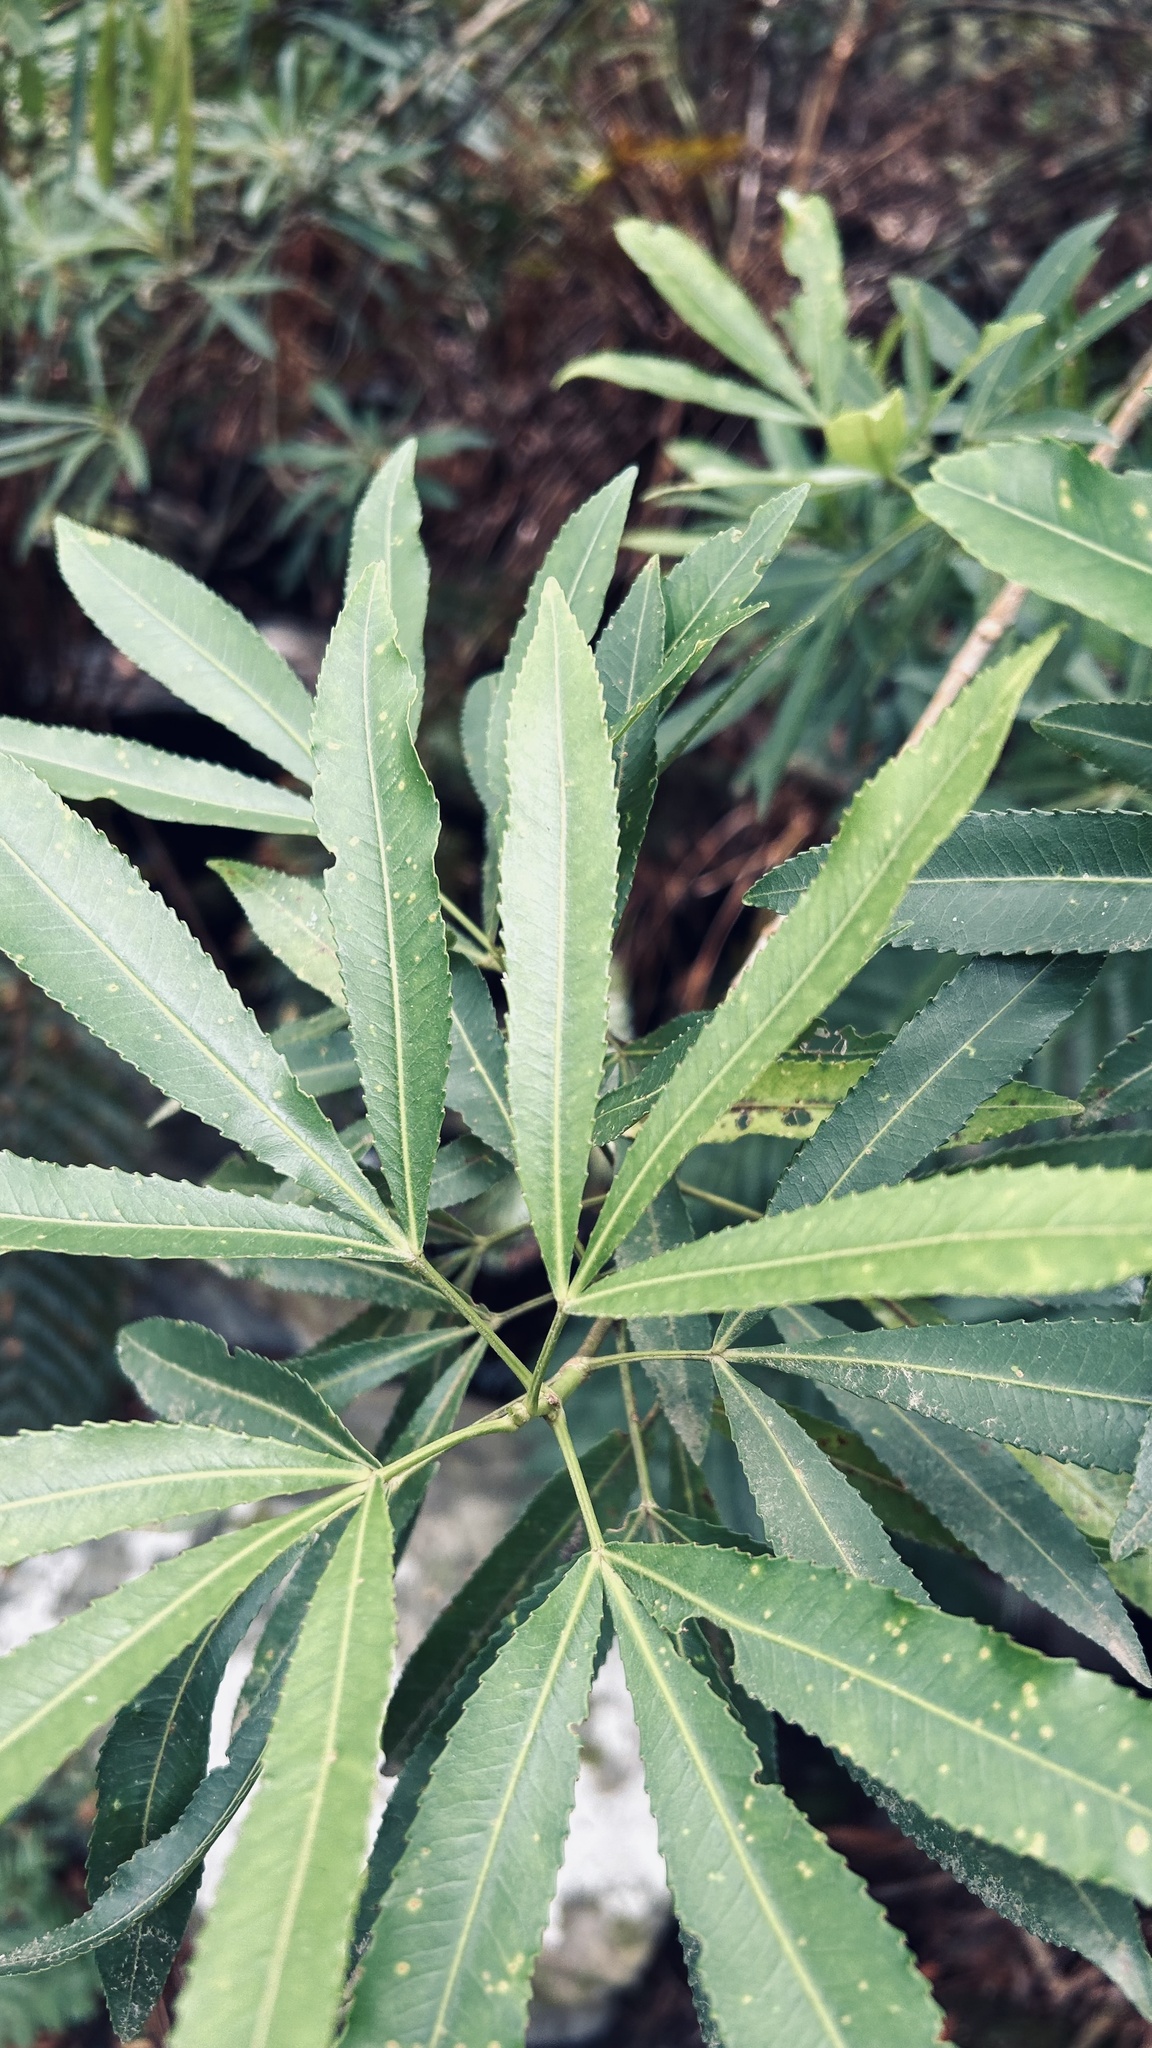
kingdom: Plantae
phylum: Tracheophyta
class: Magnoliopsida
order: Oxalidales
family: Cunoniaceae
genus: Platylophus
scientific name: Platylophus trifoliatus
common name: White alder
